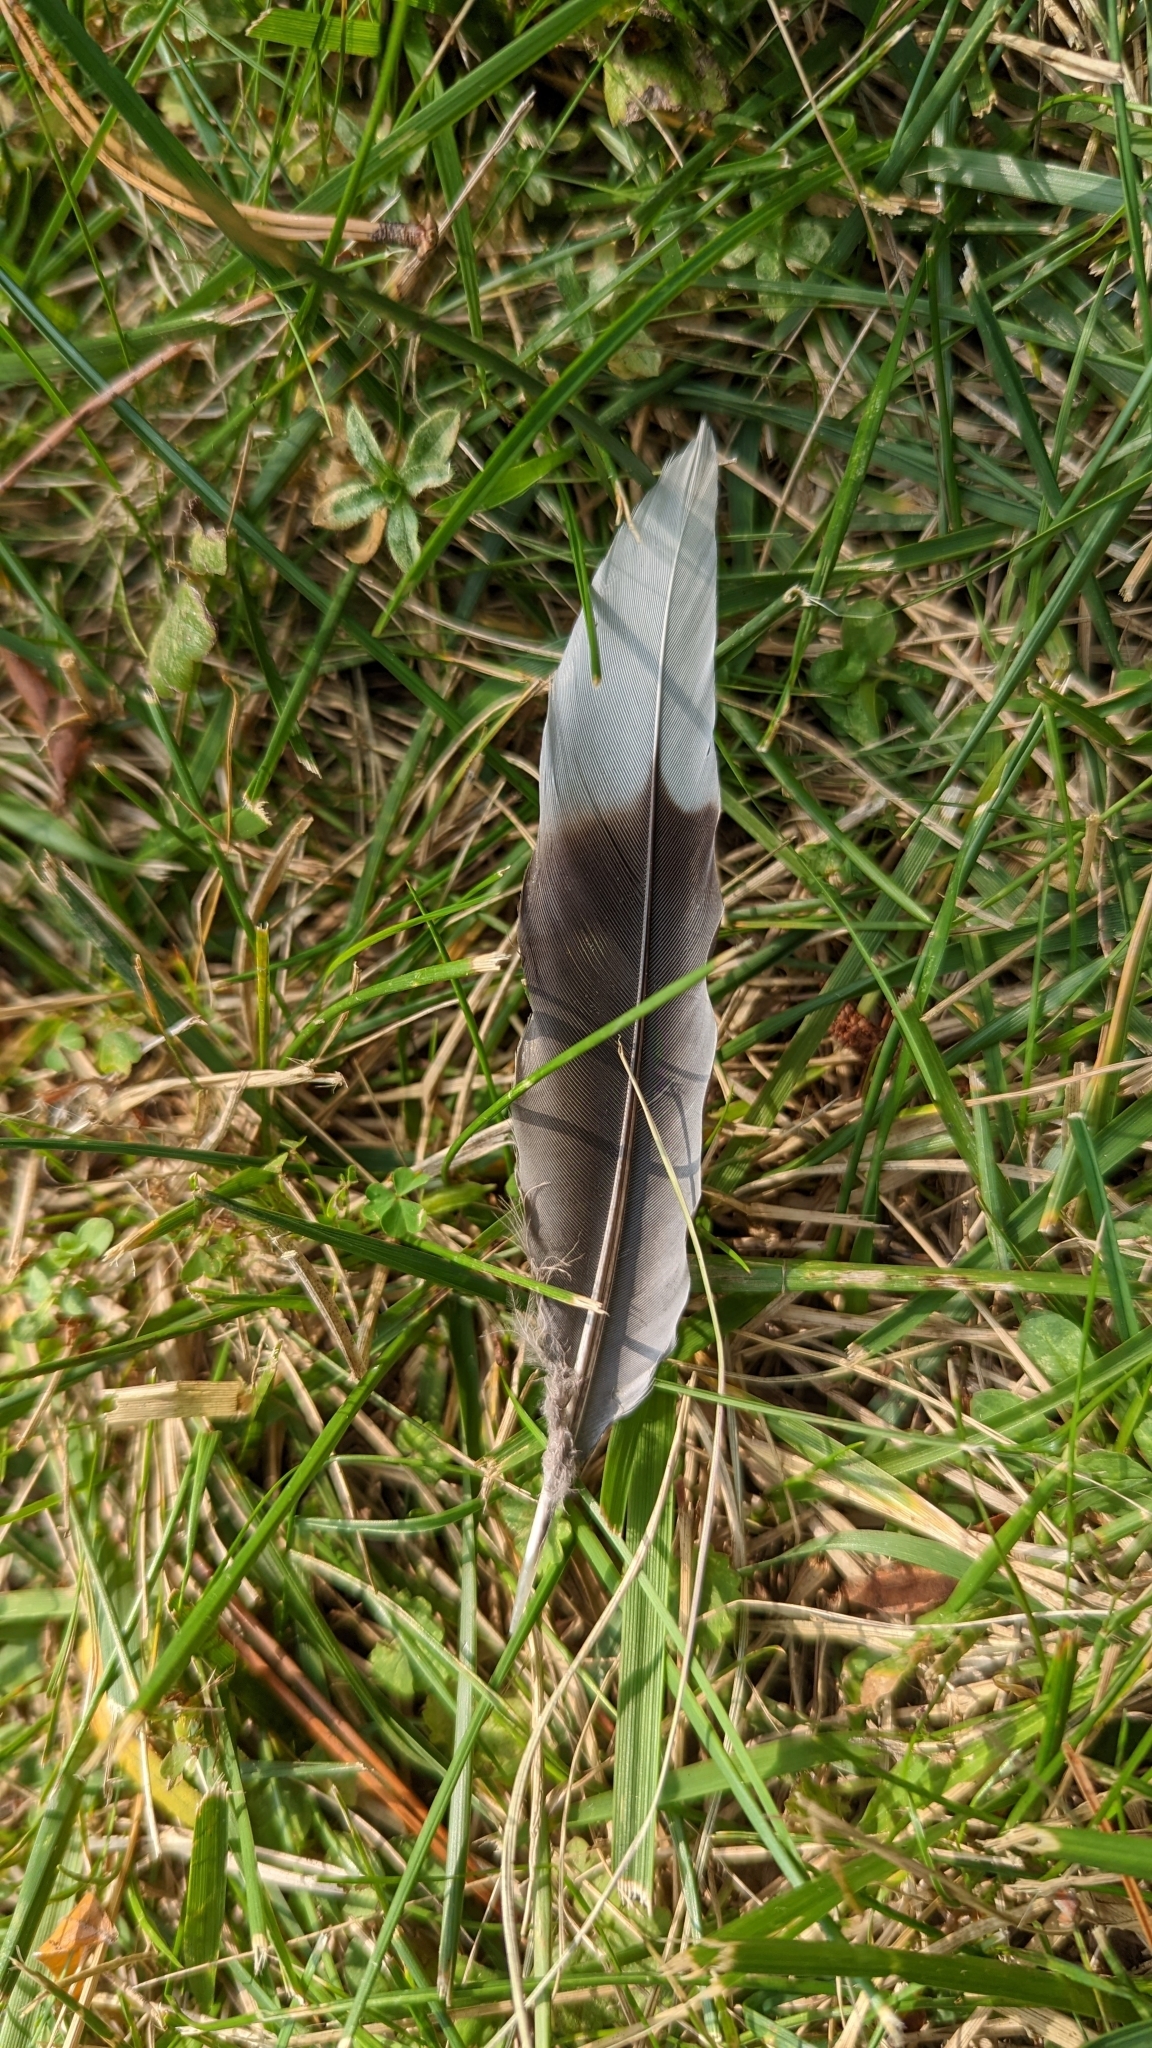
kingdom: Animalia
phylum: Chordata
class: Aves
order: Columbiformes
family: Columbidae
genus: Zenaida
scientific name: Zenaida macroura
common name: Mourning dove
